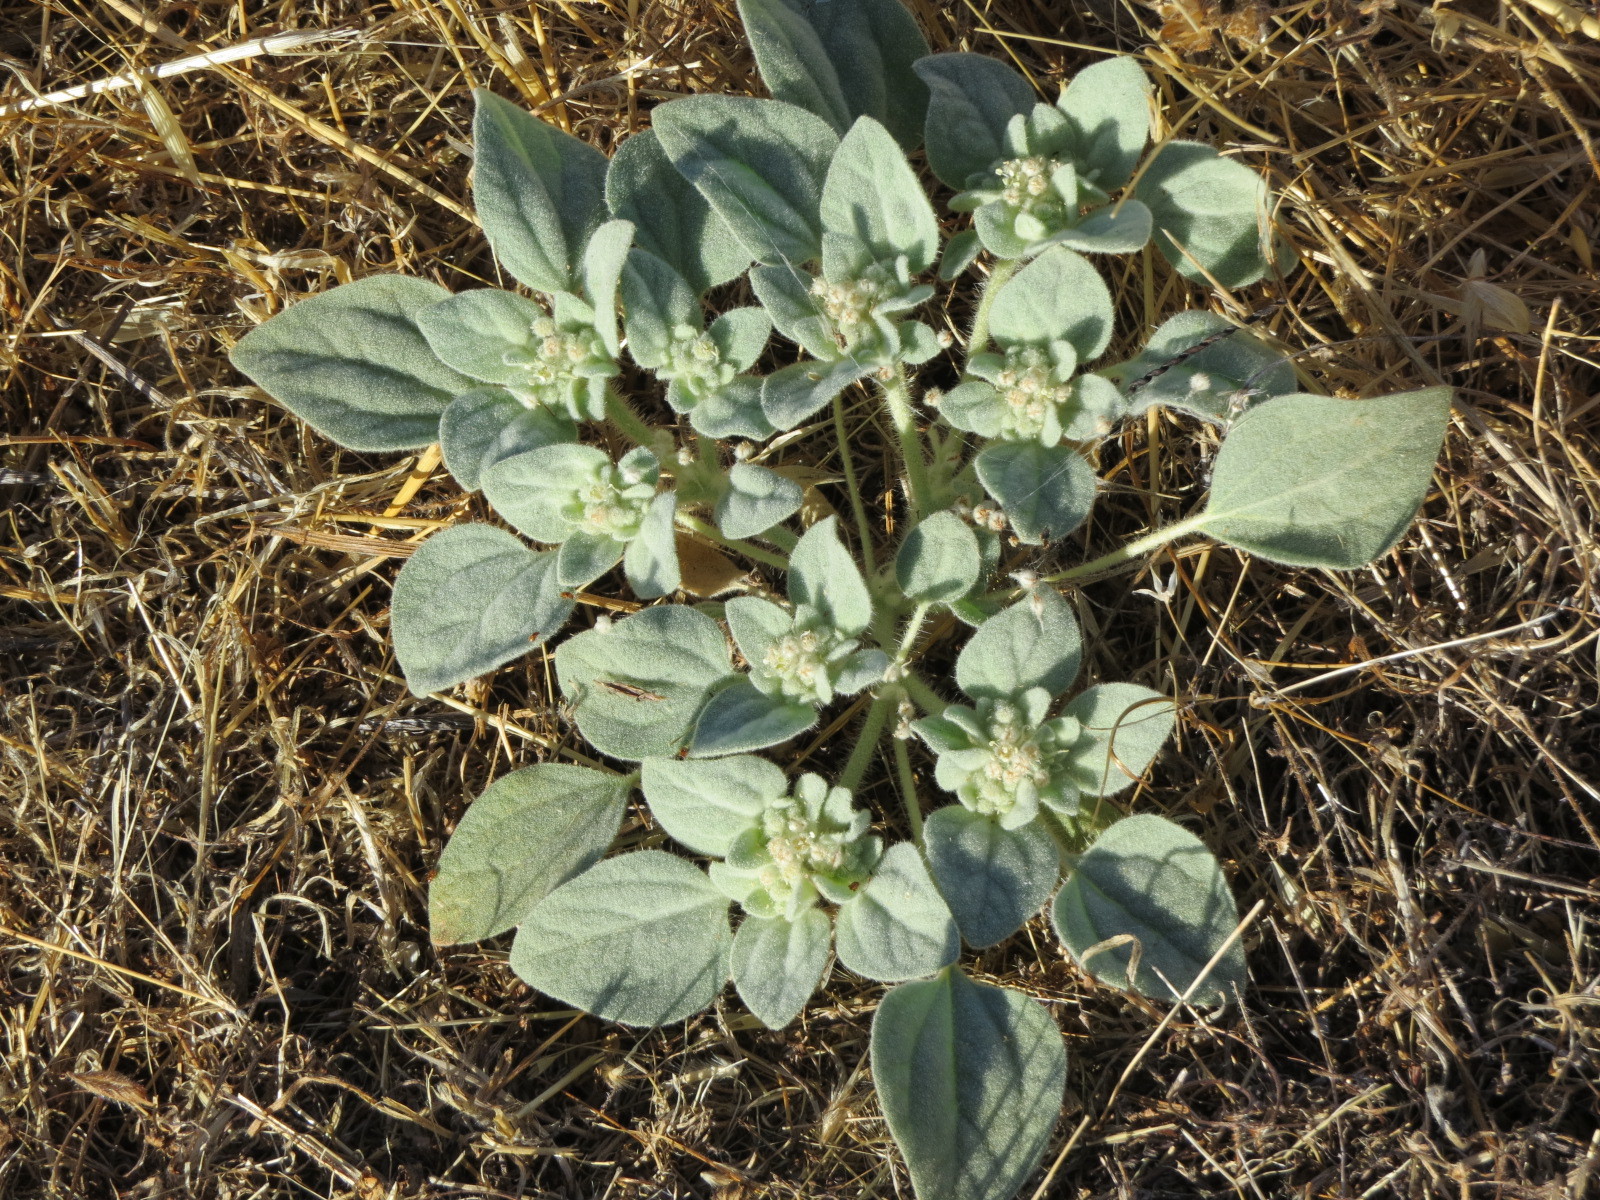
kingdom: Plantae
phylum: Tracheophyta
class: Magnoliopsida
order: Malpighiales
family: Euphorbiaceae
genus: Croton
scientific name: Croton setiger
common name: Dove weed
